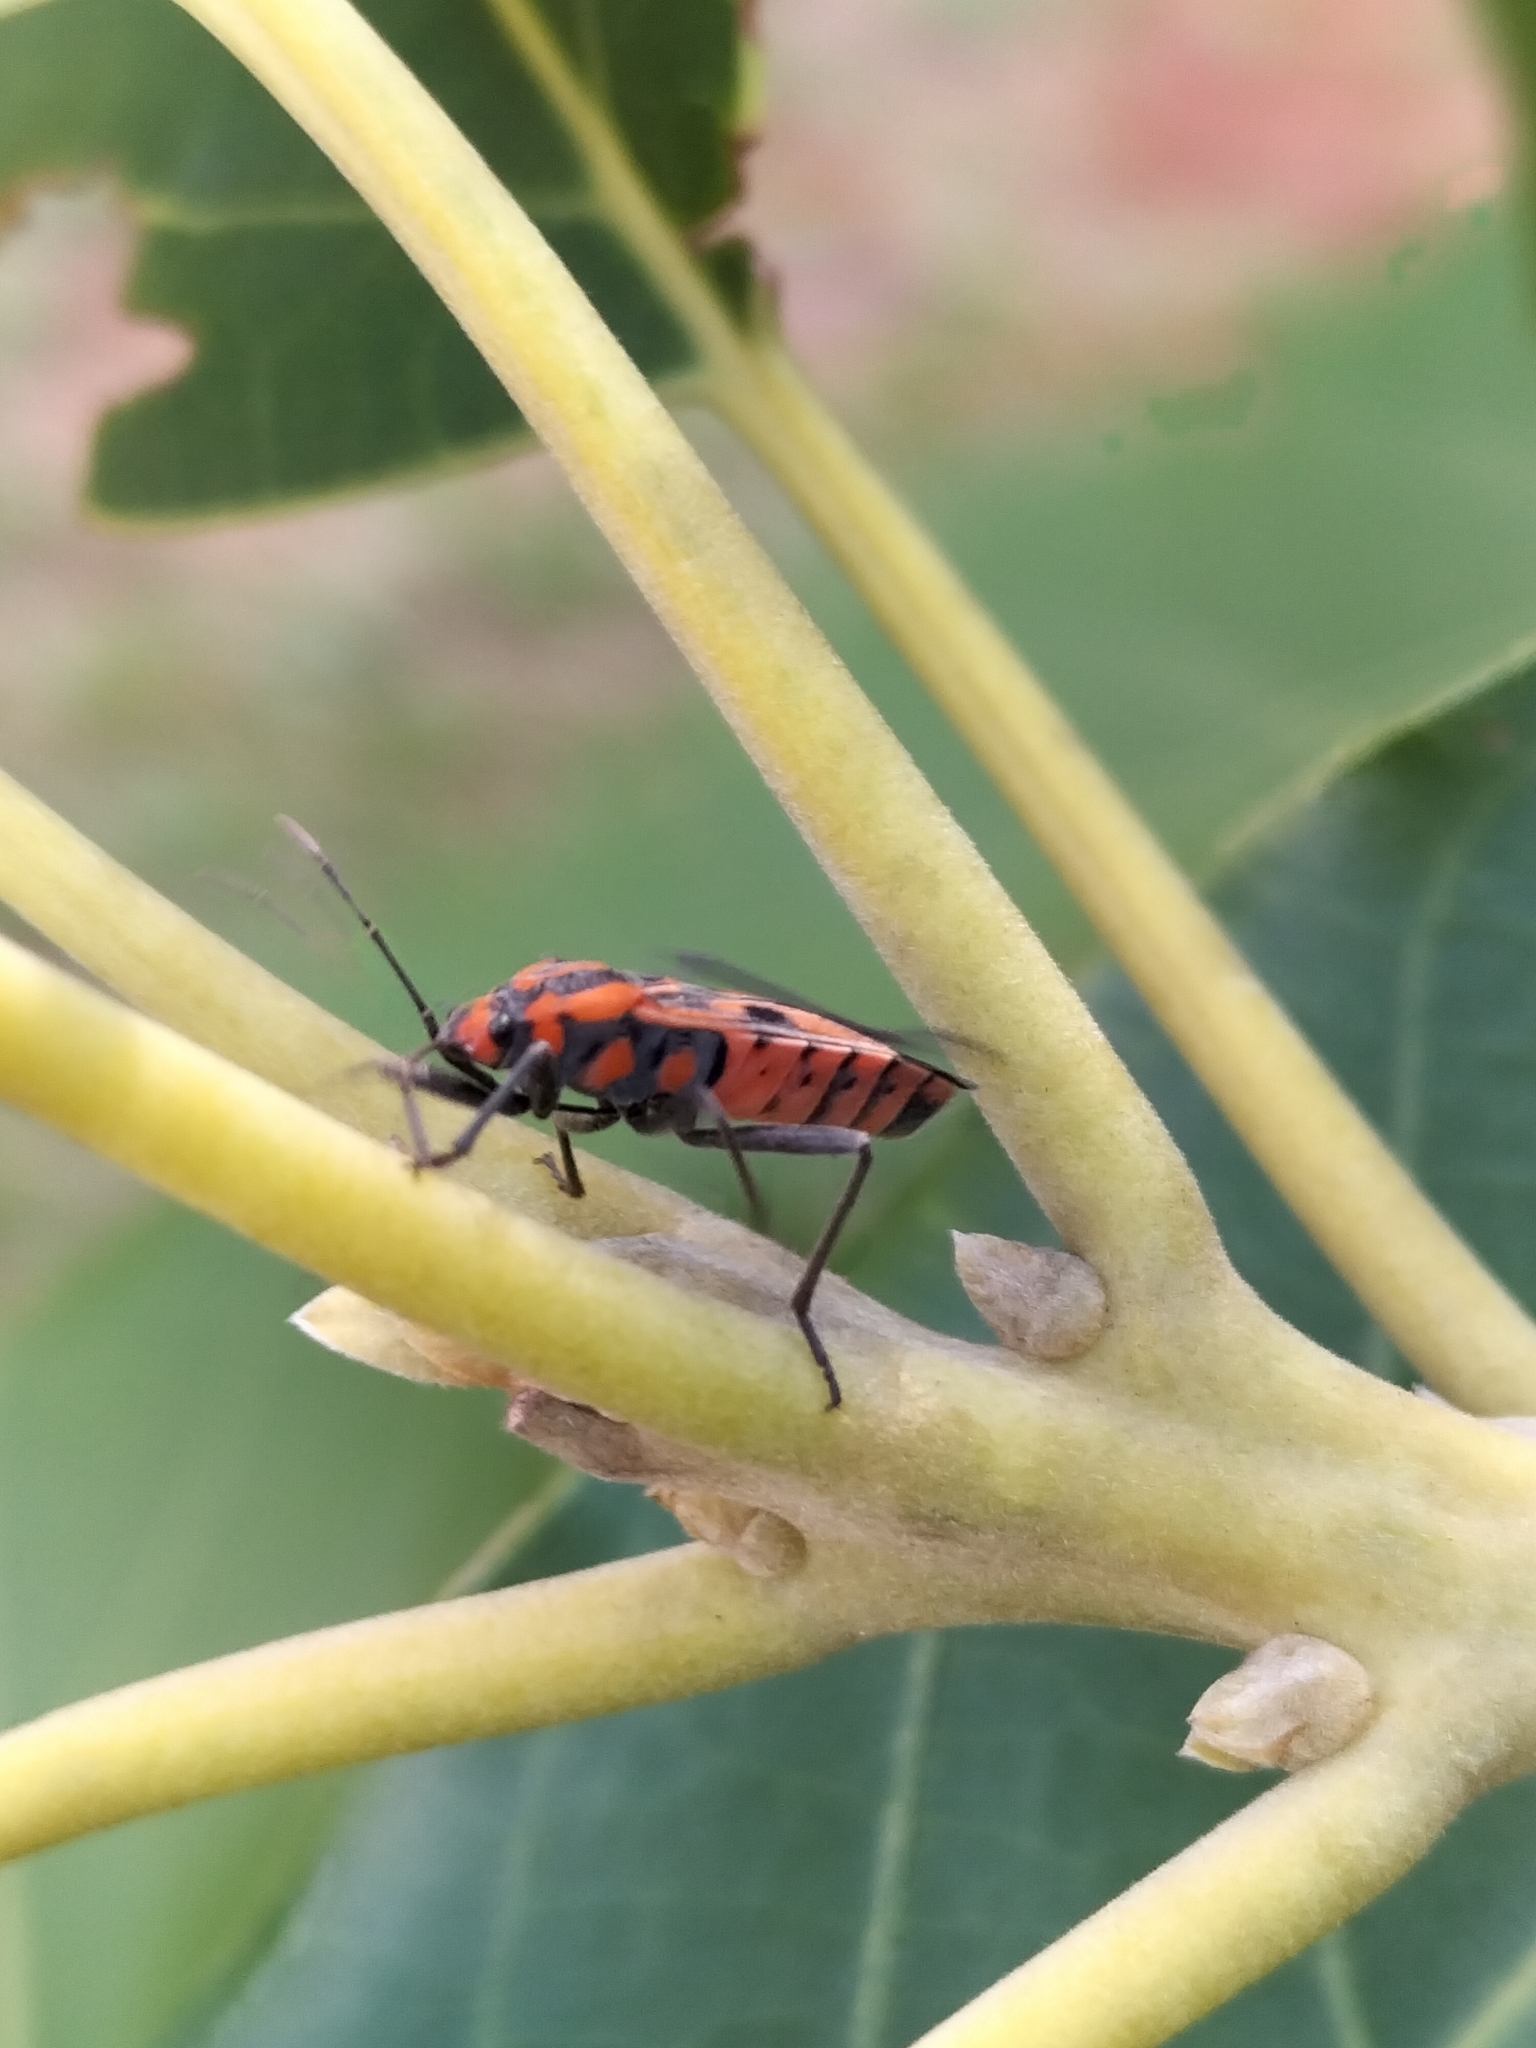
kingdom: Animalia
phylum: Arthropoda
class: Insecta
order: Hemiptera
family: Lygaeidae
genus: Spilostethus
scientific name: Spilostethus hospes
